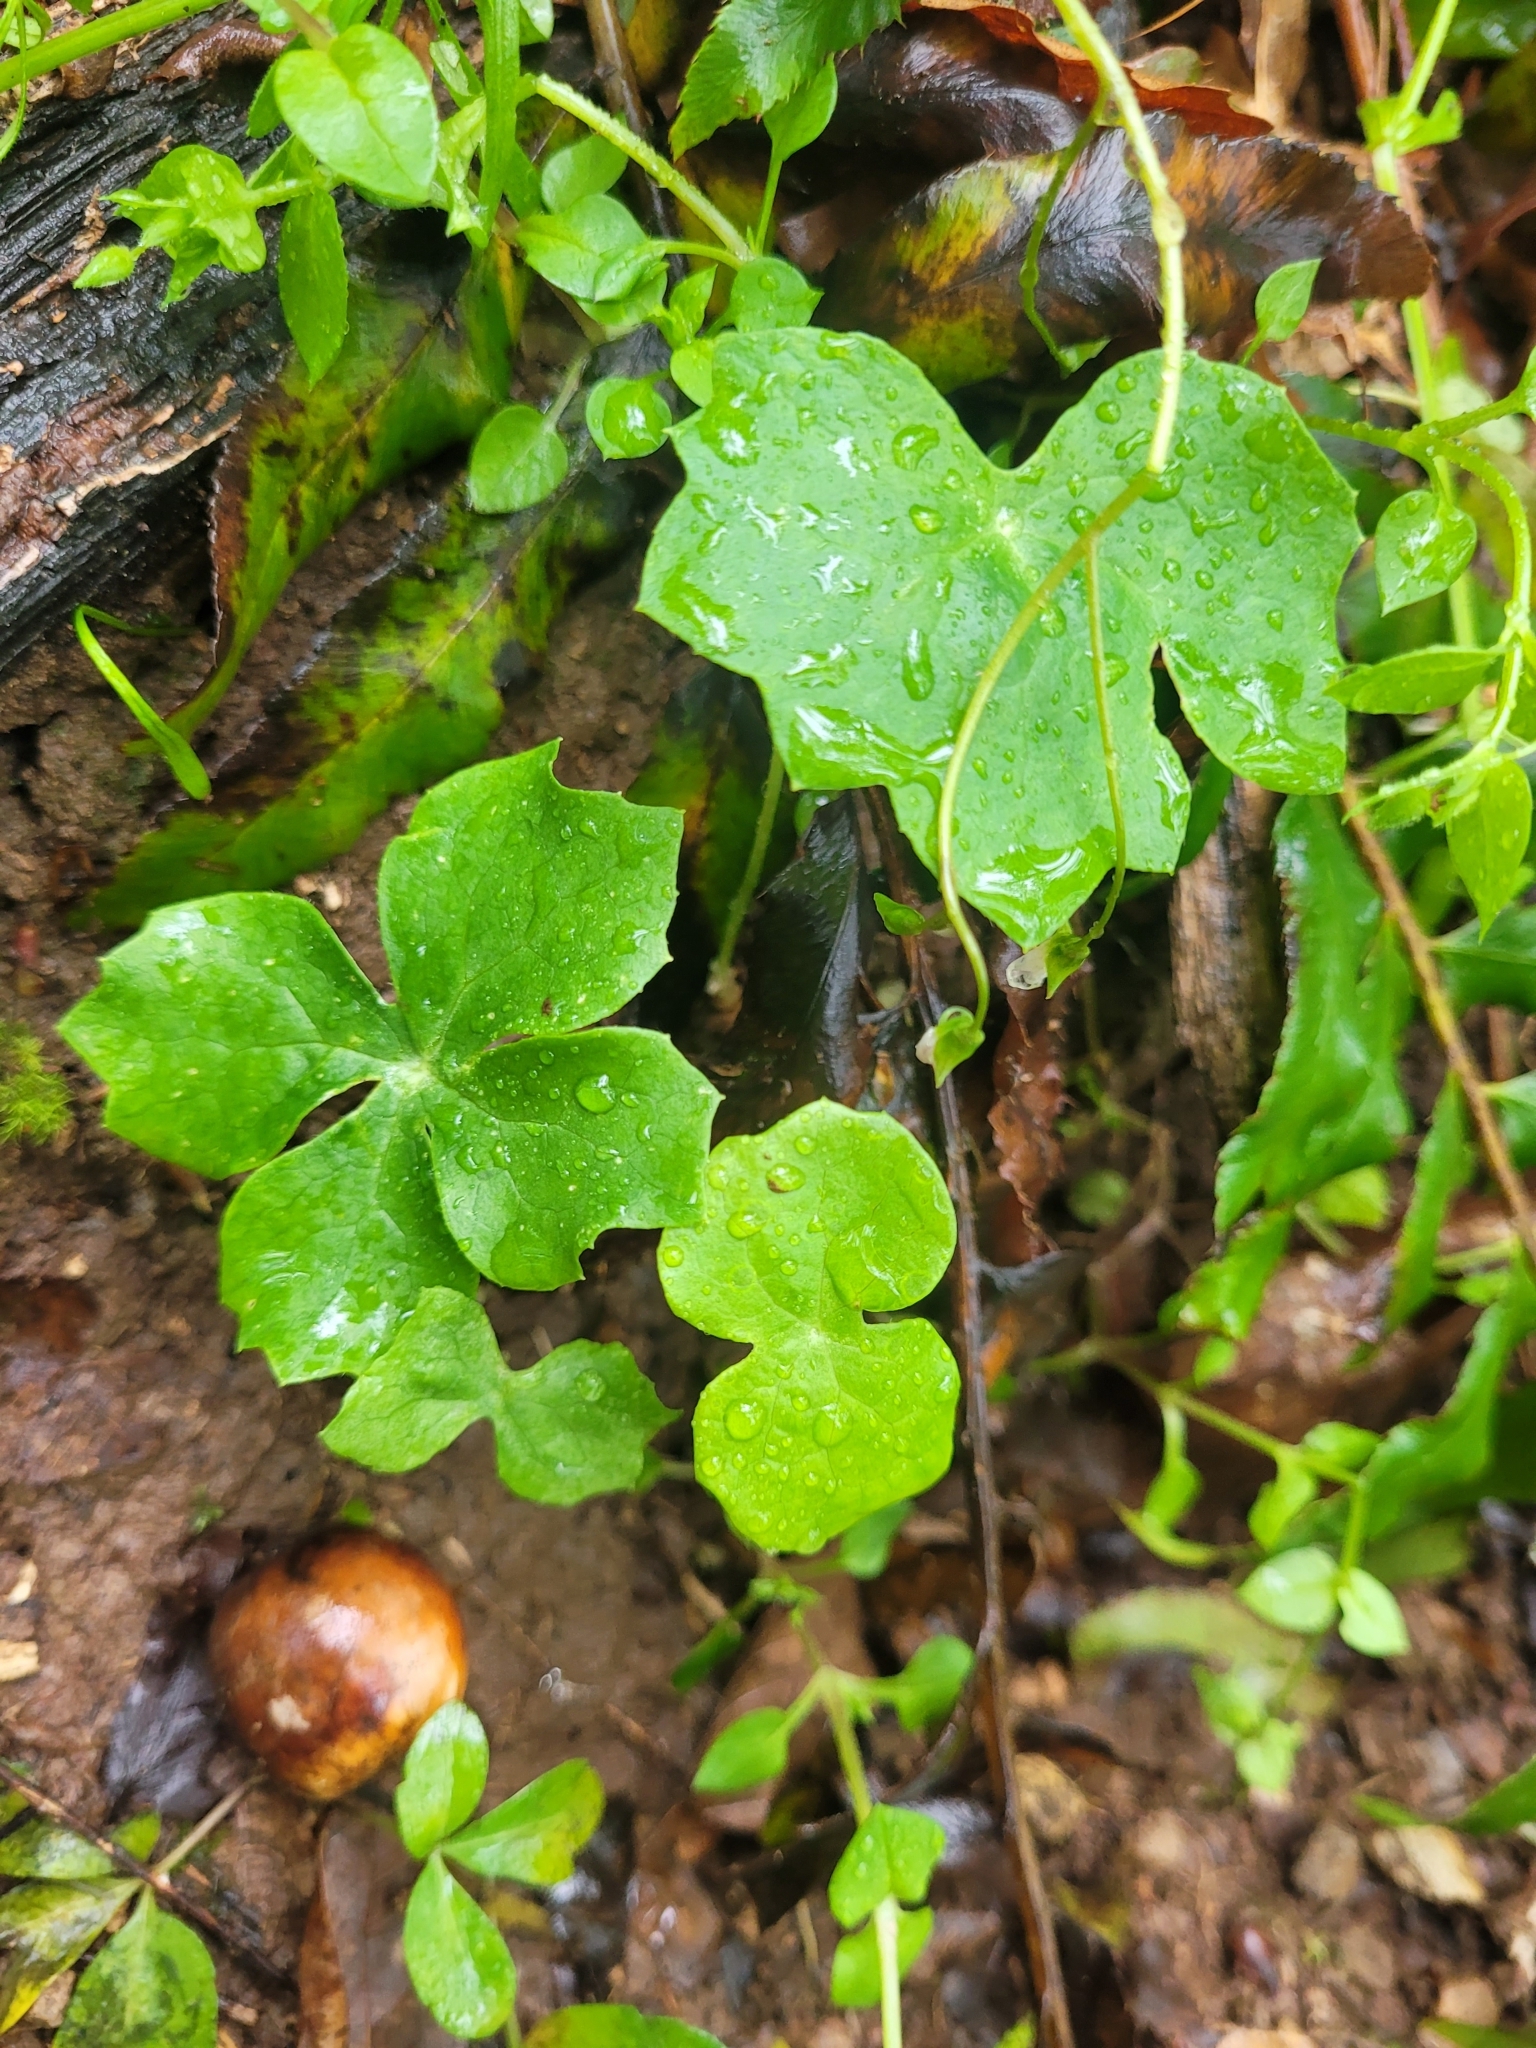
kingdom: Plantae
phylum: Tracheophyta
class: Magnoliopsida
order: Ranunculales
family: Berberidaceae
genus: Podophyllum
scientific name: Podophyllum peltatum
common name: Wild mandrake
